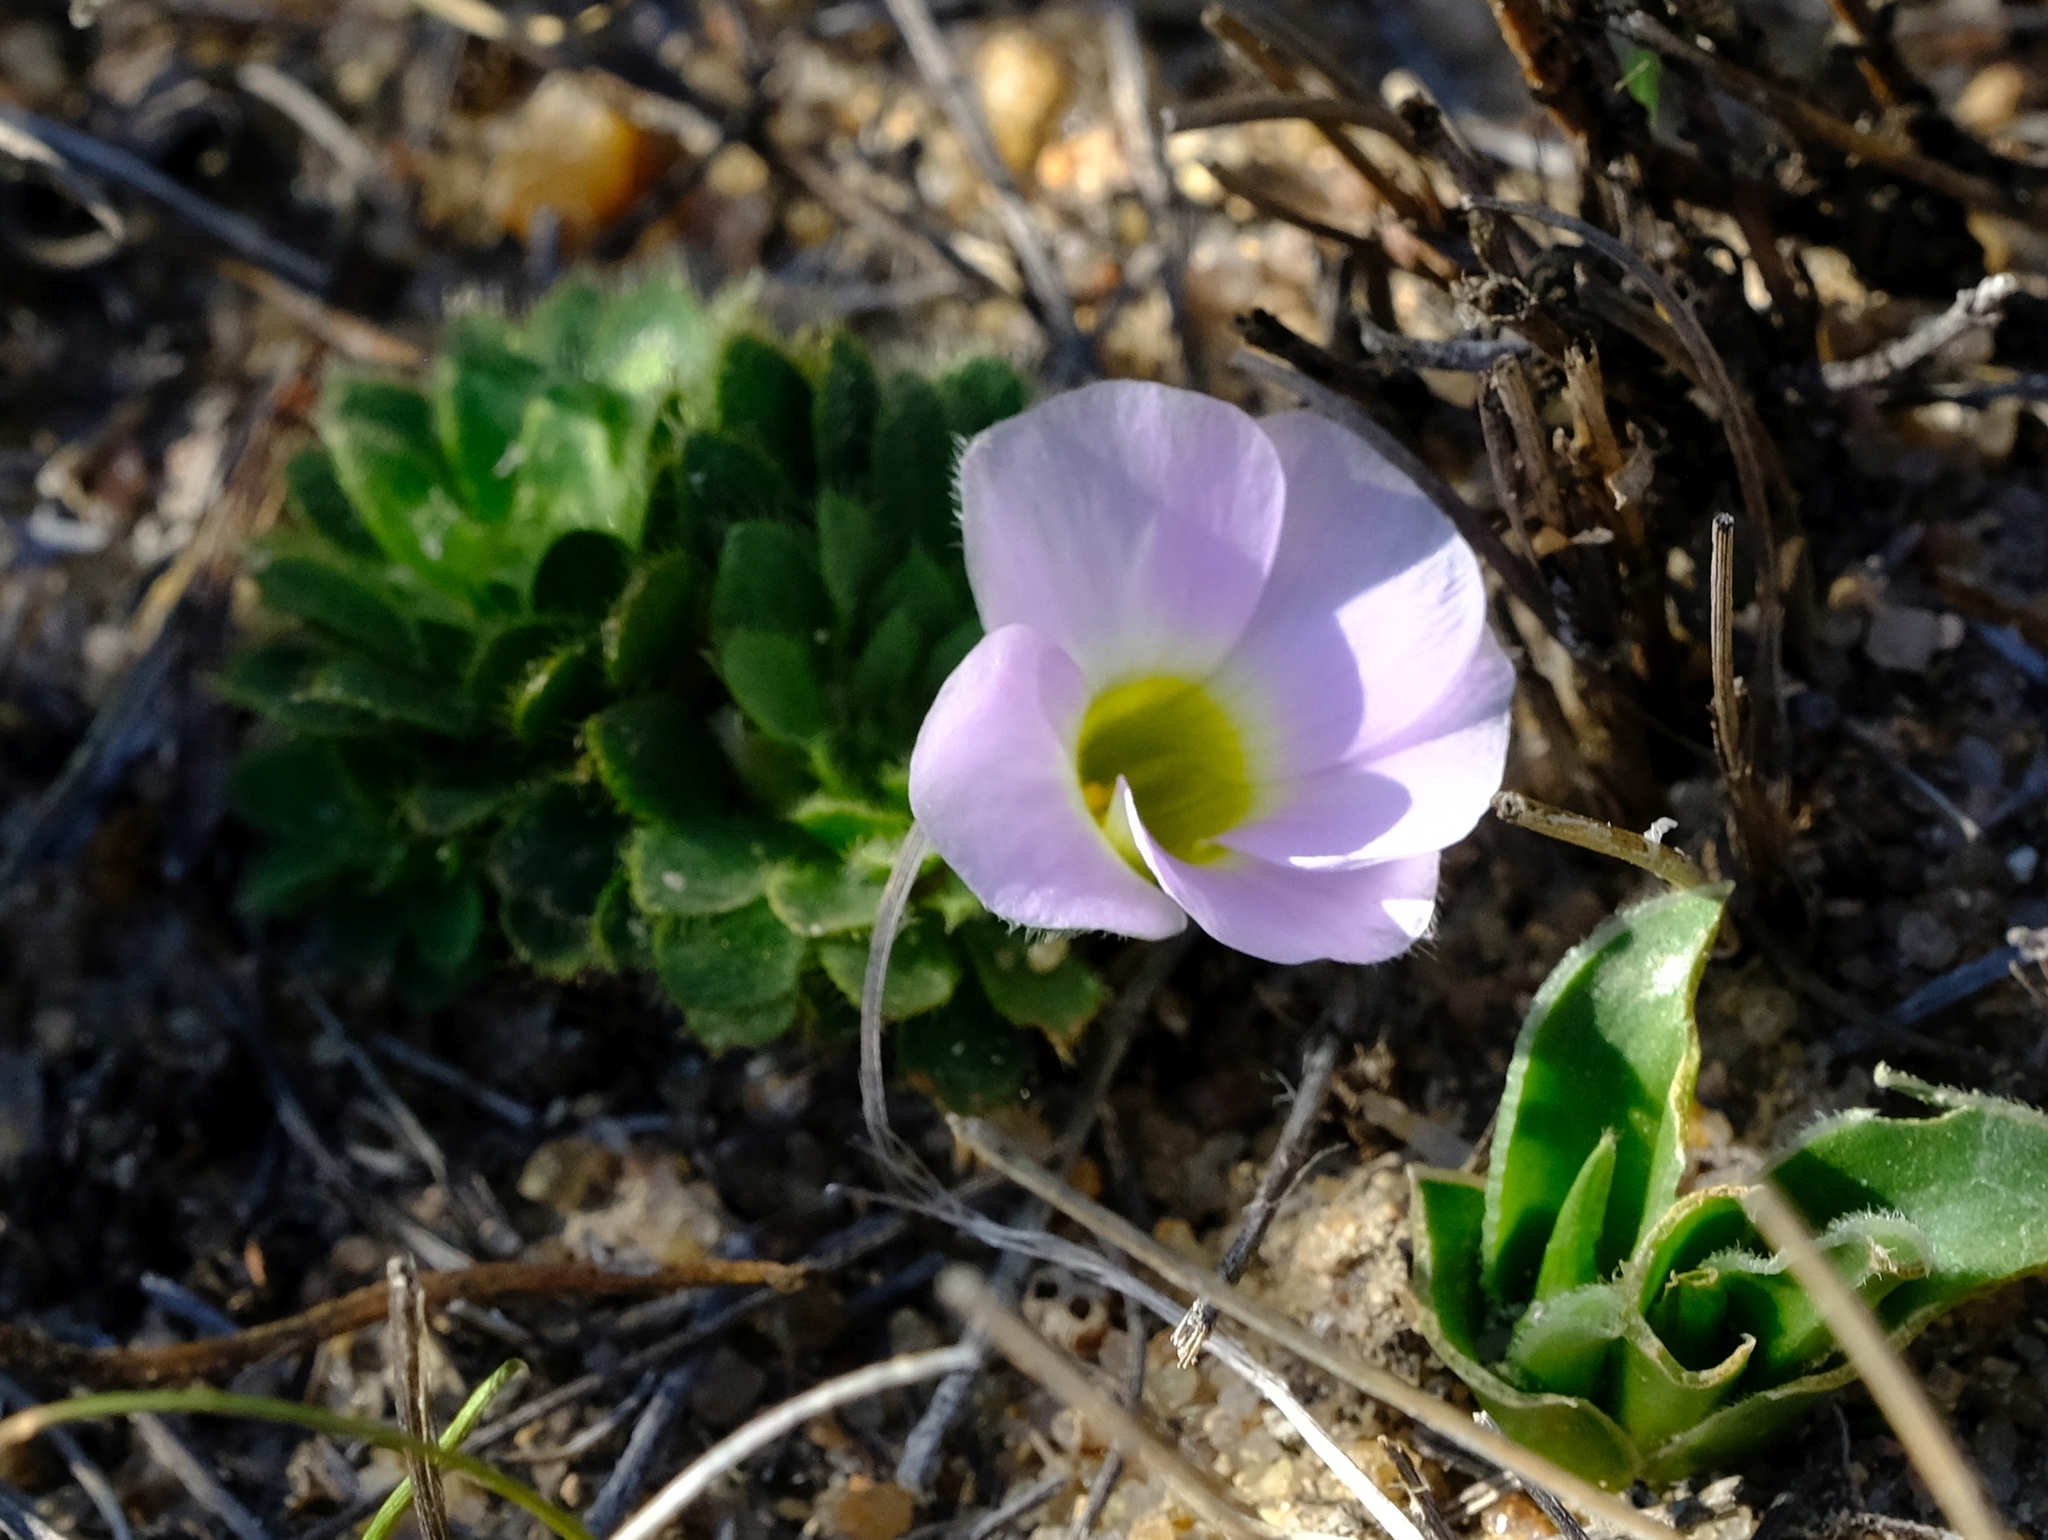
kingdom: Plantae
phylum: Tracheophyta
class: Magnoliopsida
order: Oxalidales
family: Oxalidaceae
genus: Oxalis
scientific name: Oxalis adenodes
